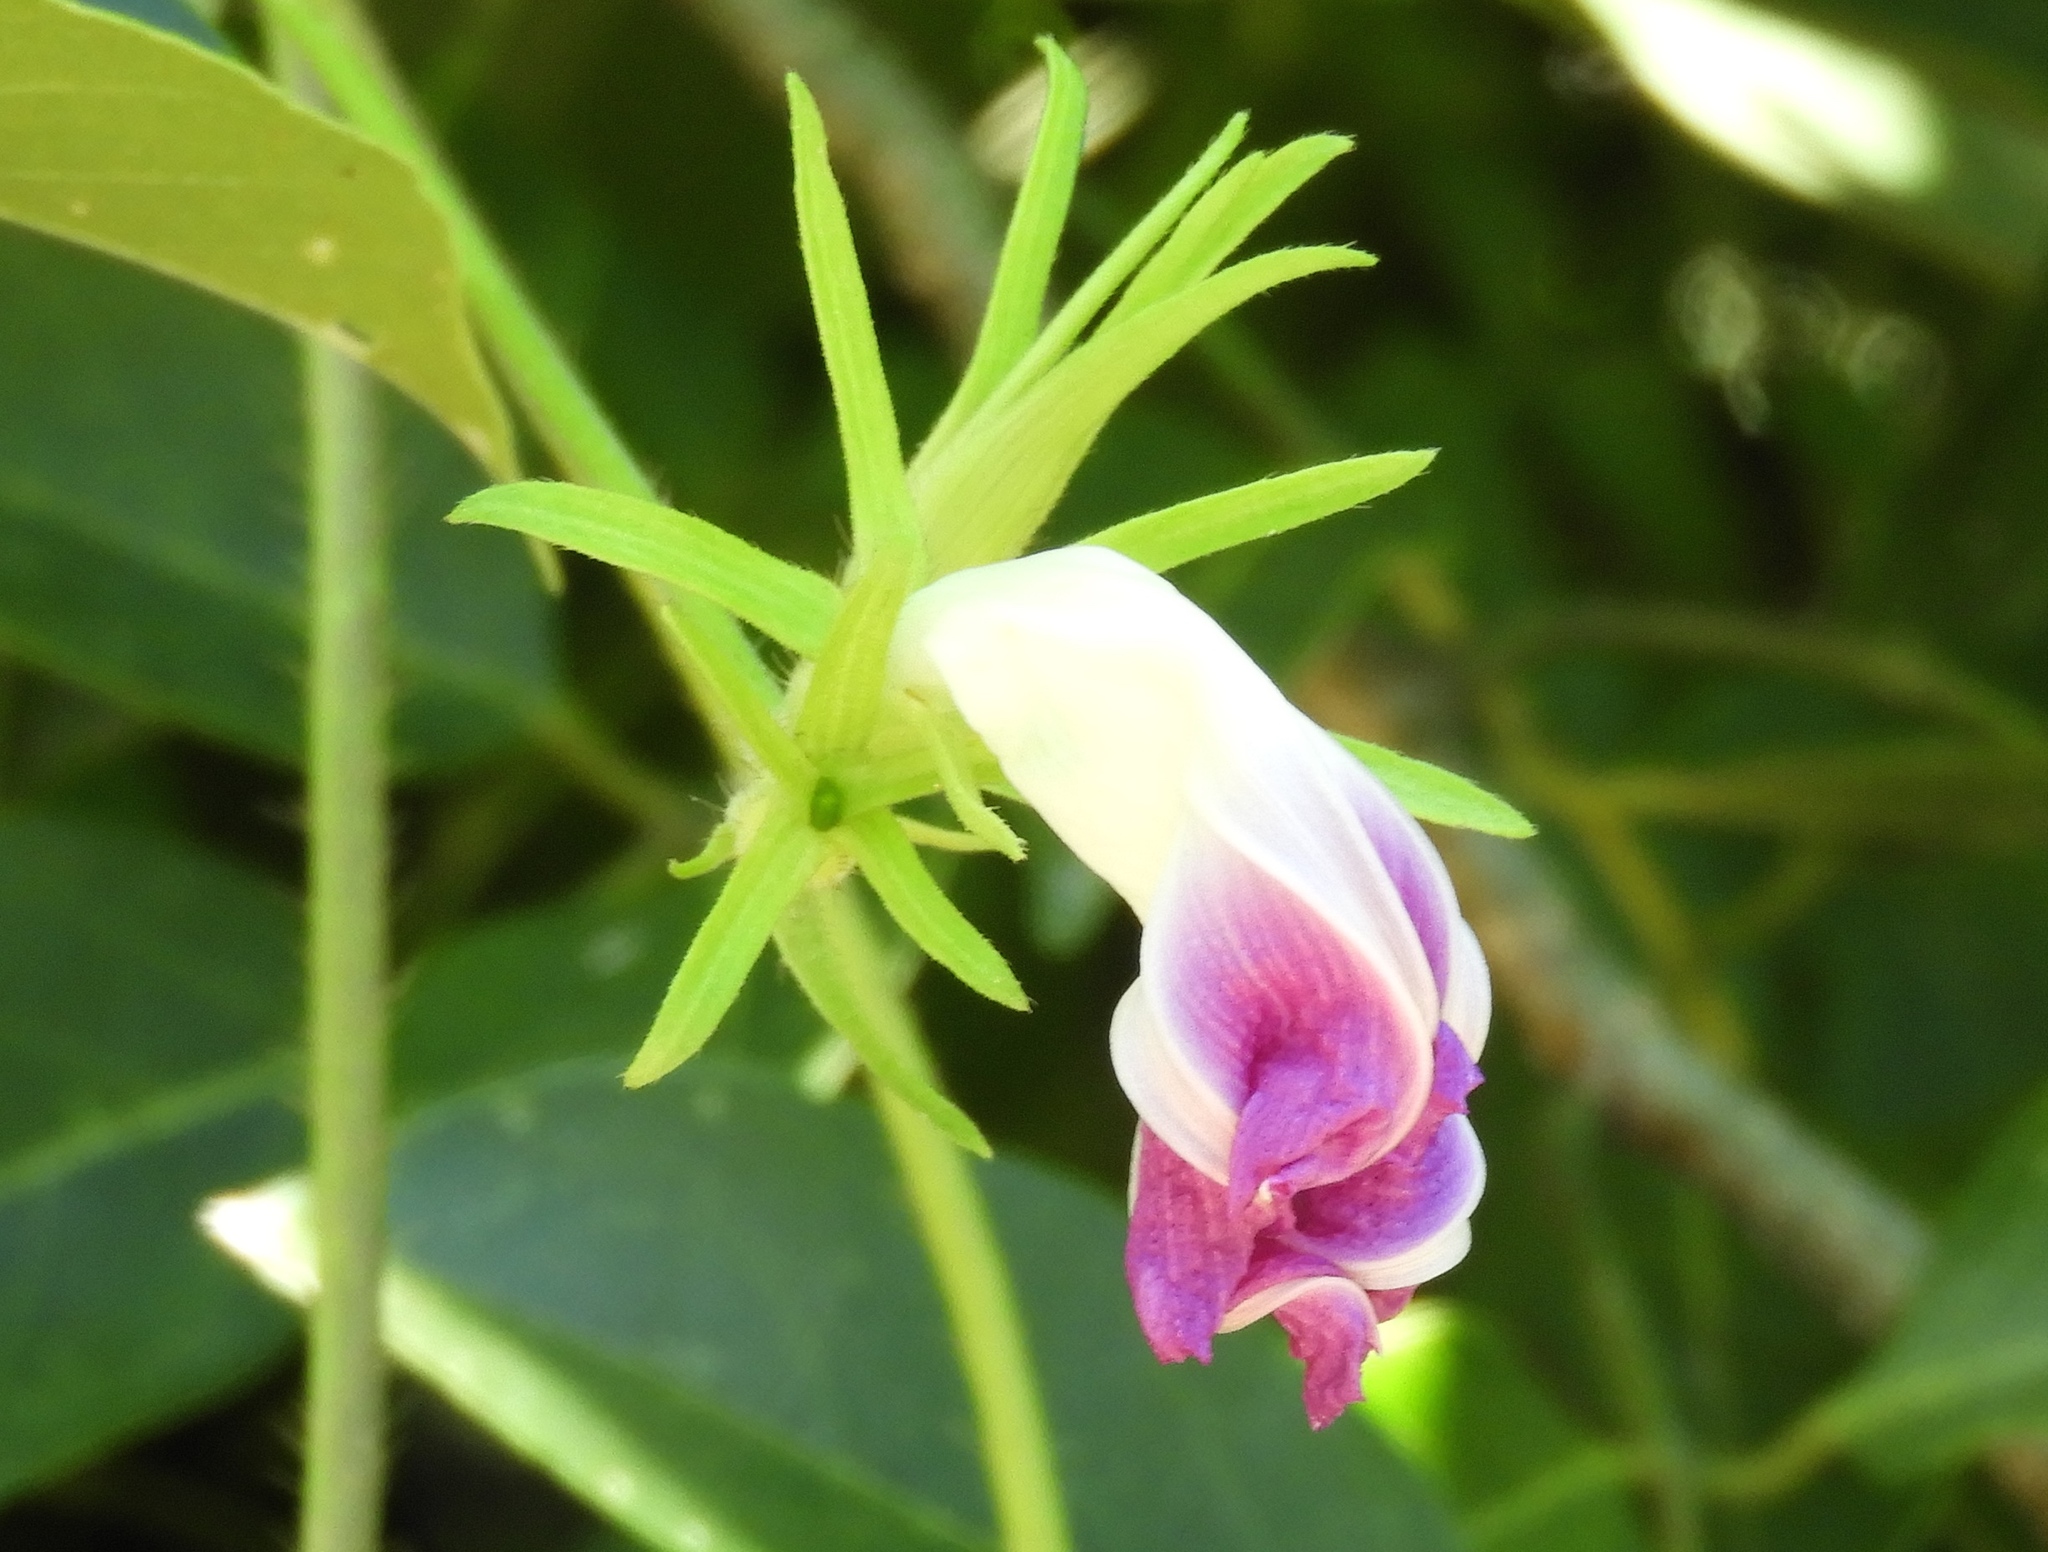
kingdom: Plantae
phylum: Tracheophyta
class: Magnoliopsida
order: Solanales
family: Convolvulaceae
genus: Ipomoea
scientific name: Ipomoea nil
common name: Japanese morning-glory
